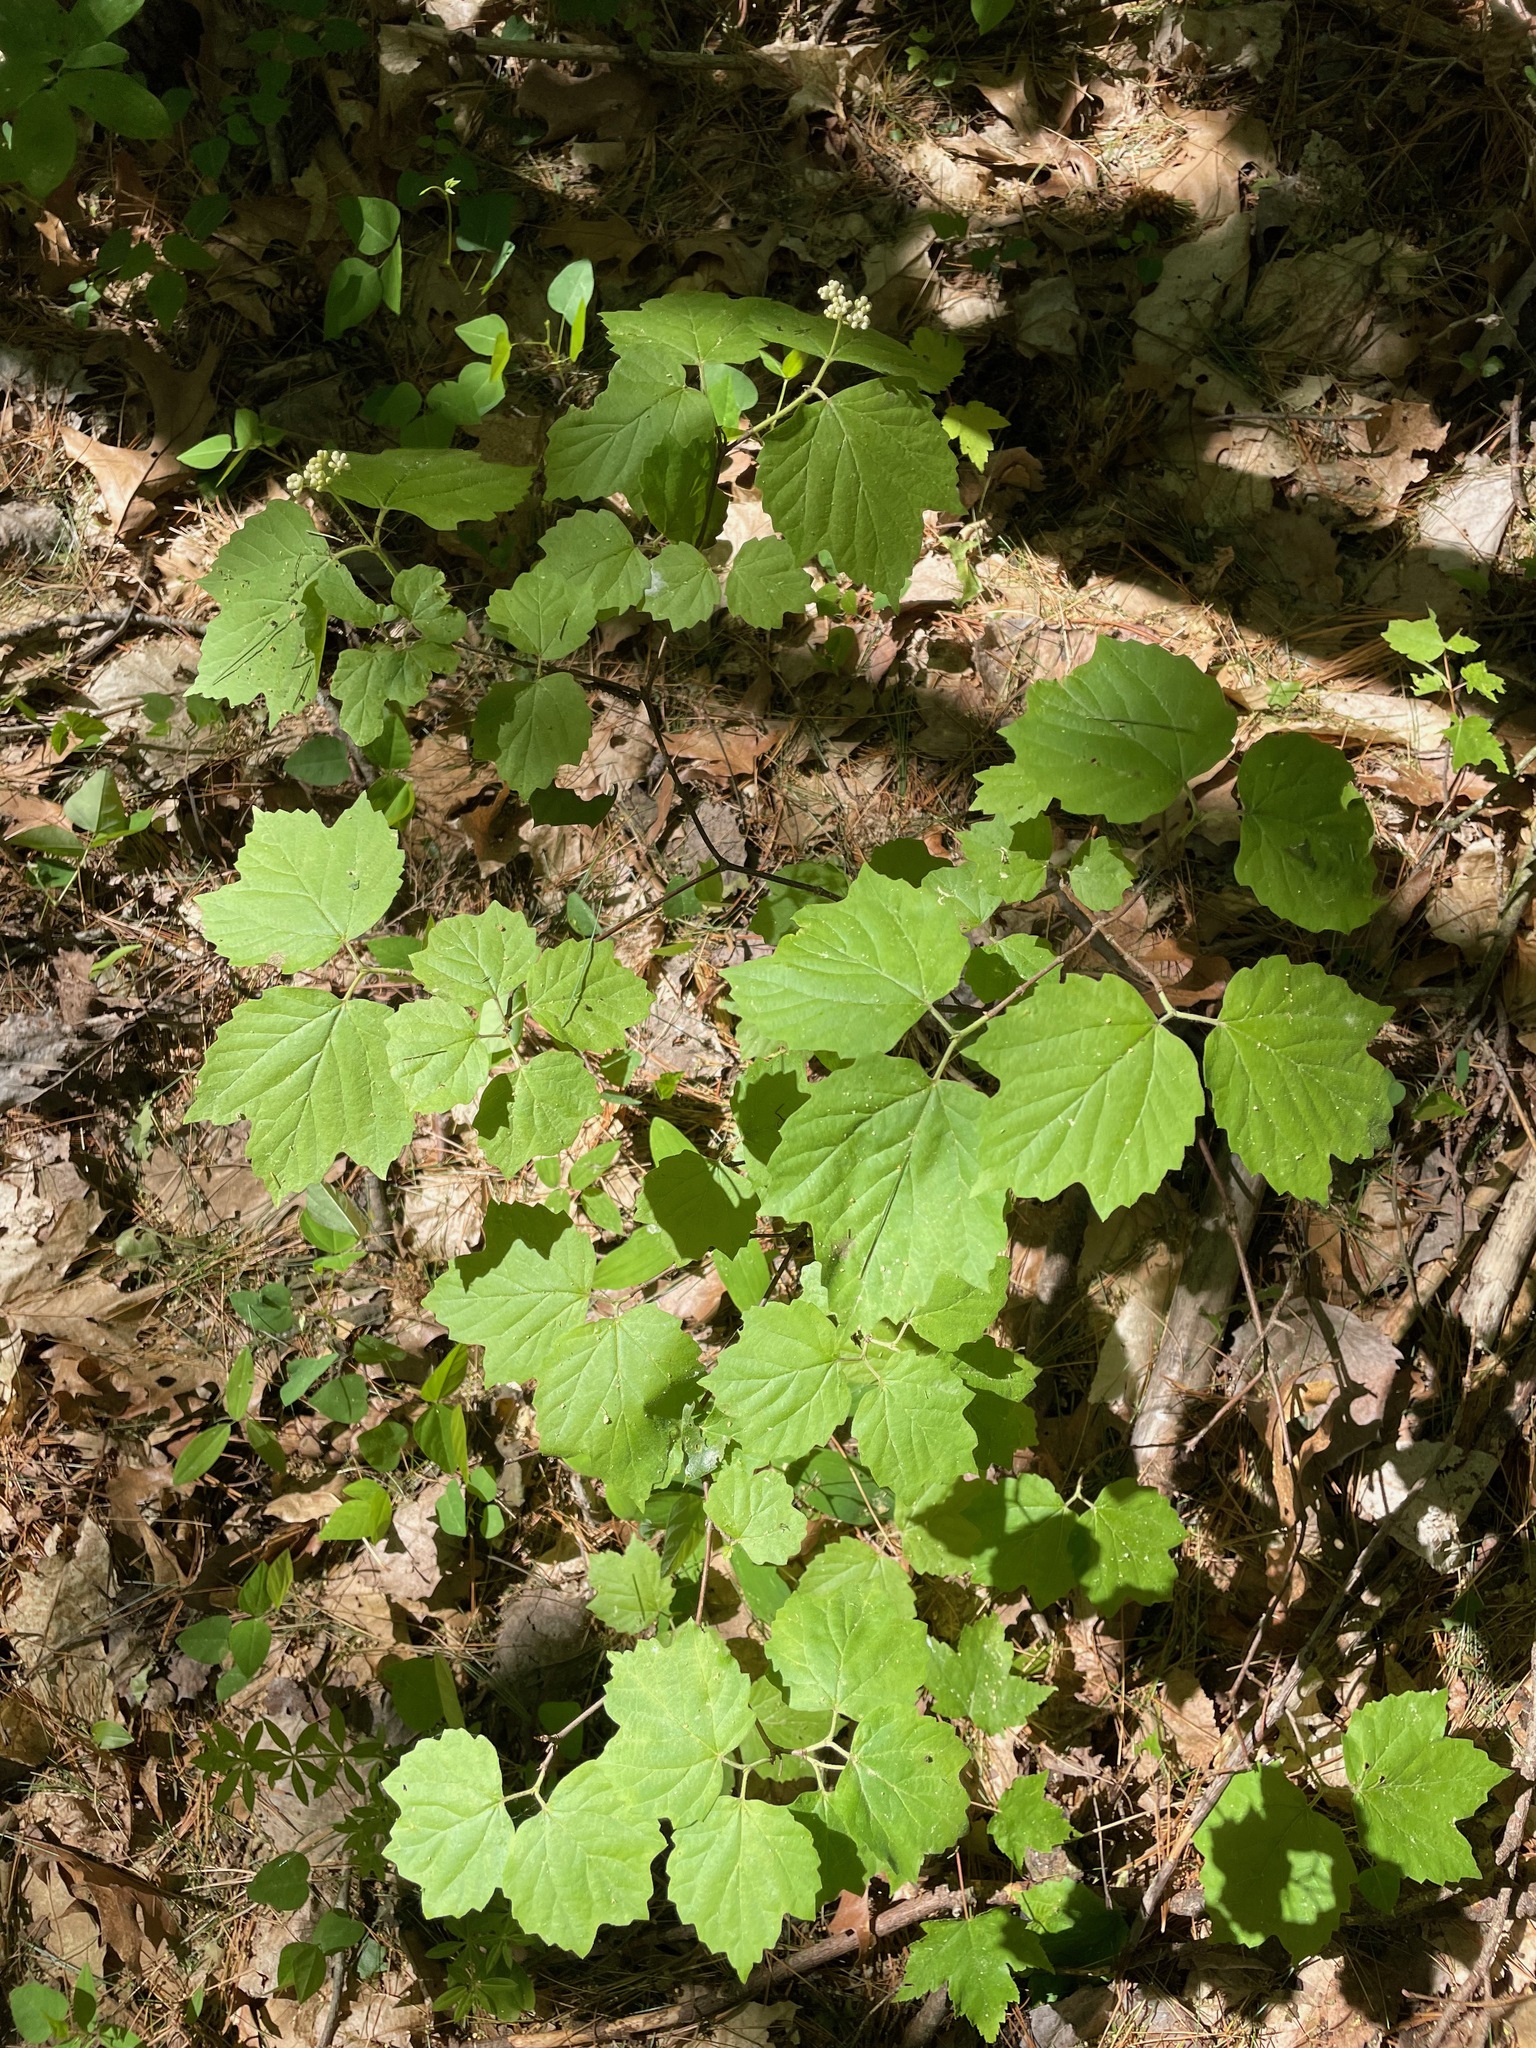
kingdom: Plantae
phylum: Tracheophyta
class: Magnoliopsida
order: Dipsacales
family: Viburnaceae
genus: Viburnum
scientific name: Viburnum acerifolium
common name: Dockmackie
